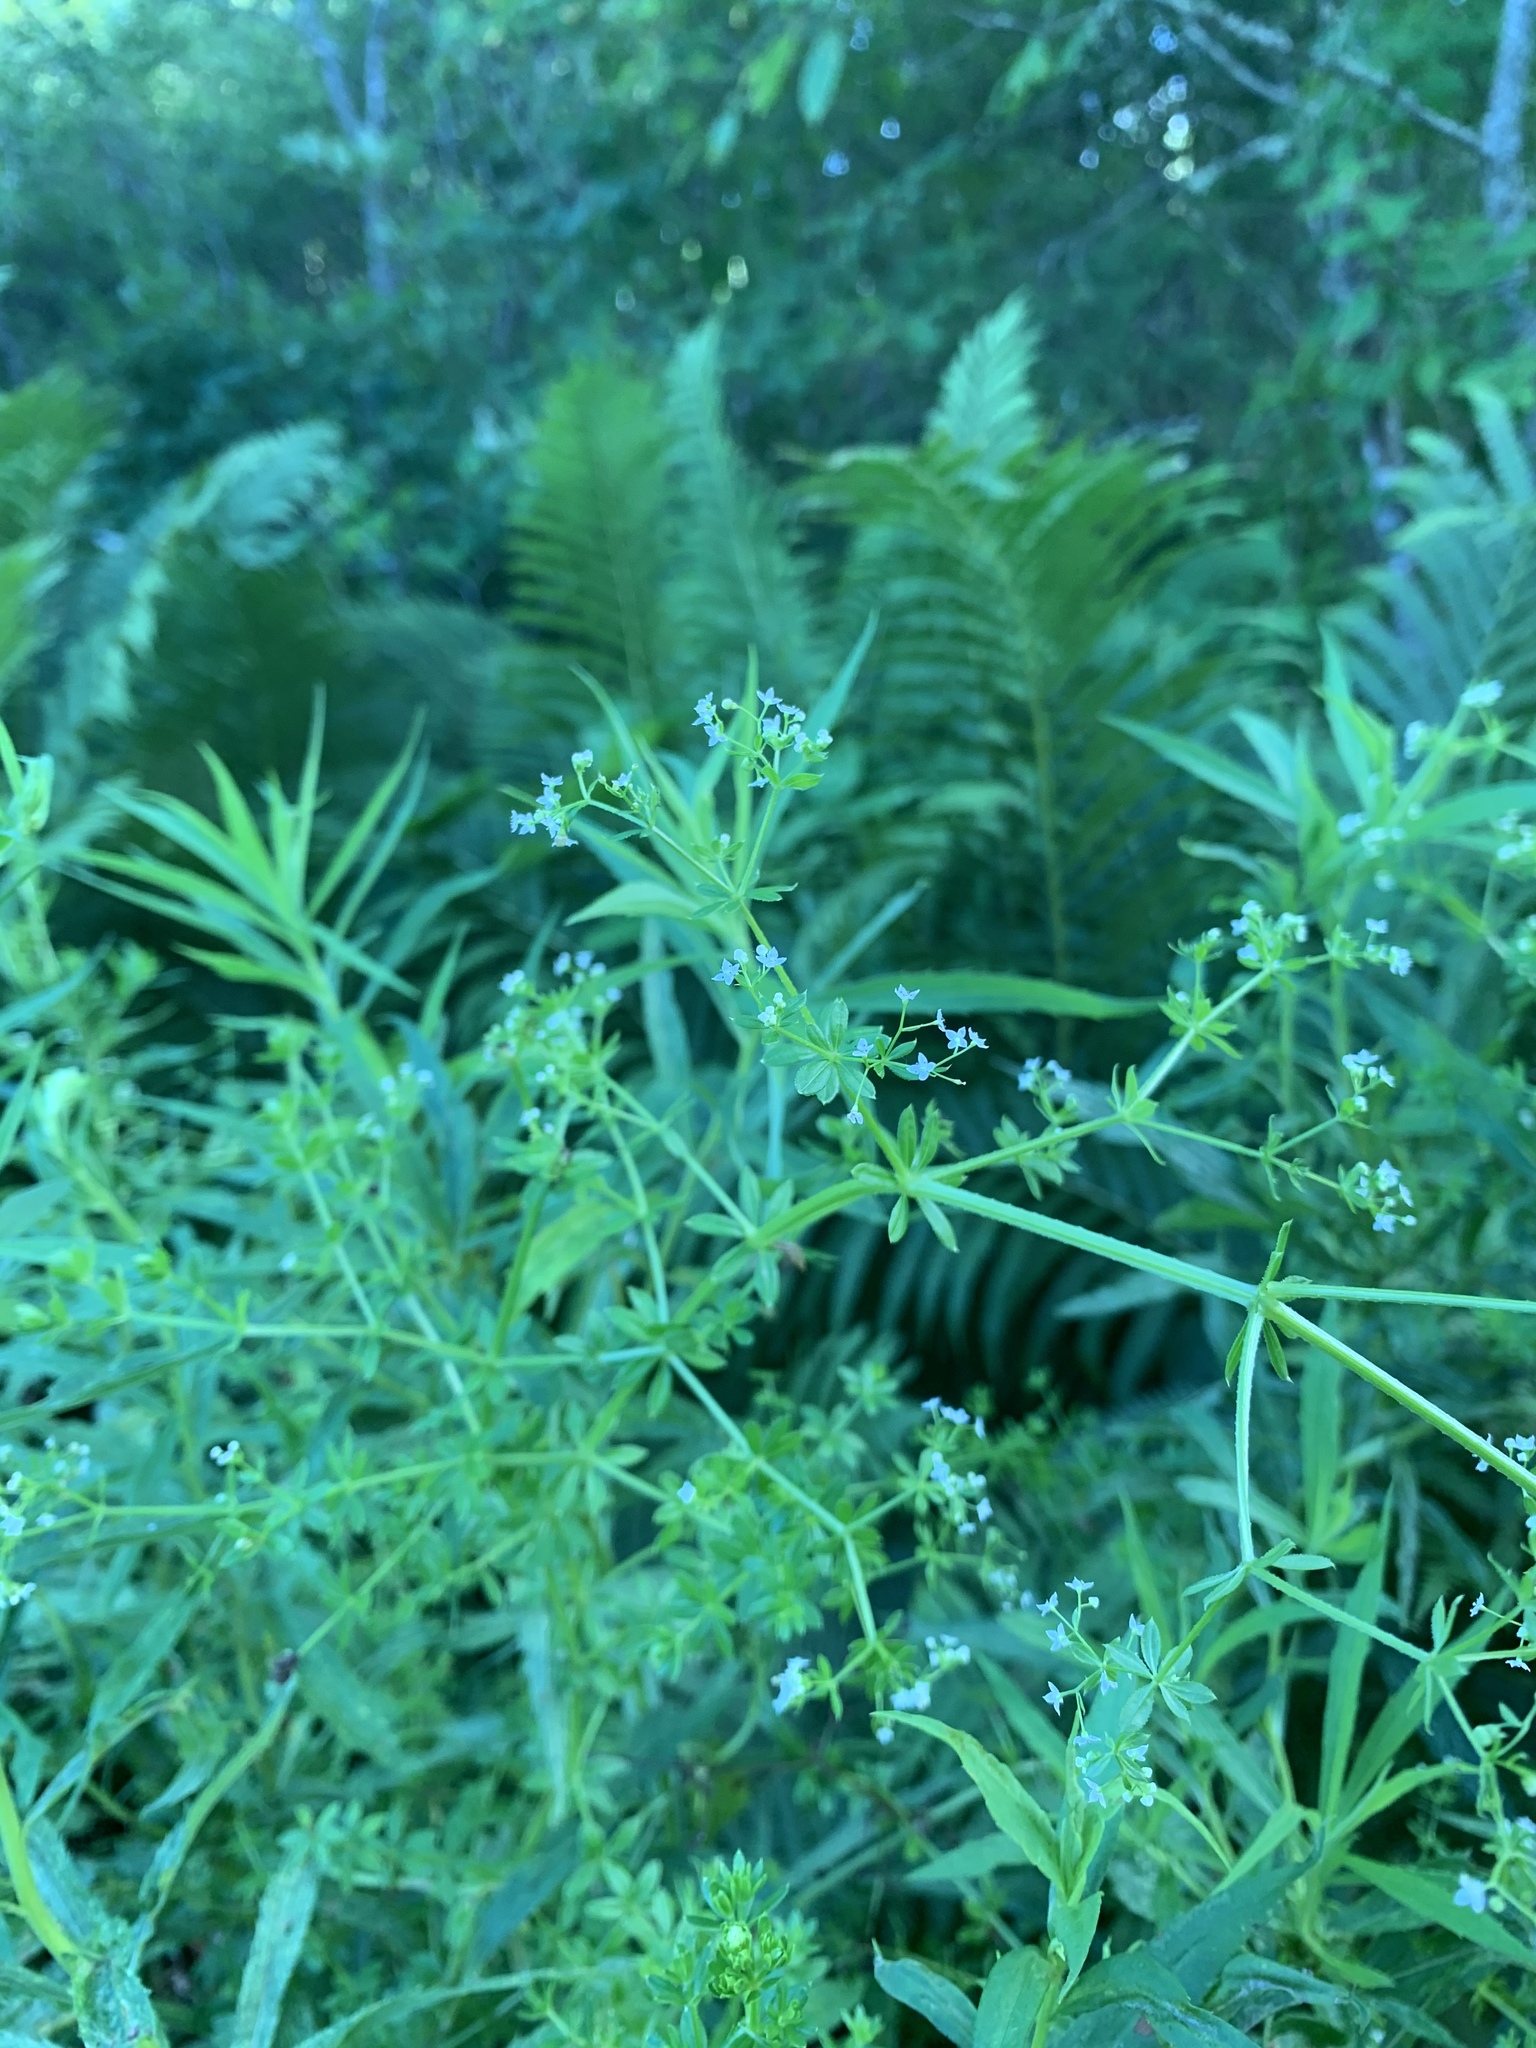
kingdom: Plantae
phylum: Tracheophyta
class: Magnoliopsida
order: Gentianales
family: Rubiaceae
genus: Galium
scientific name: Galium asprellum
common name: Rough bedstraw
